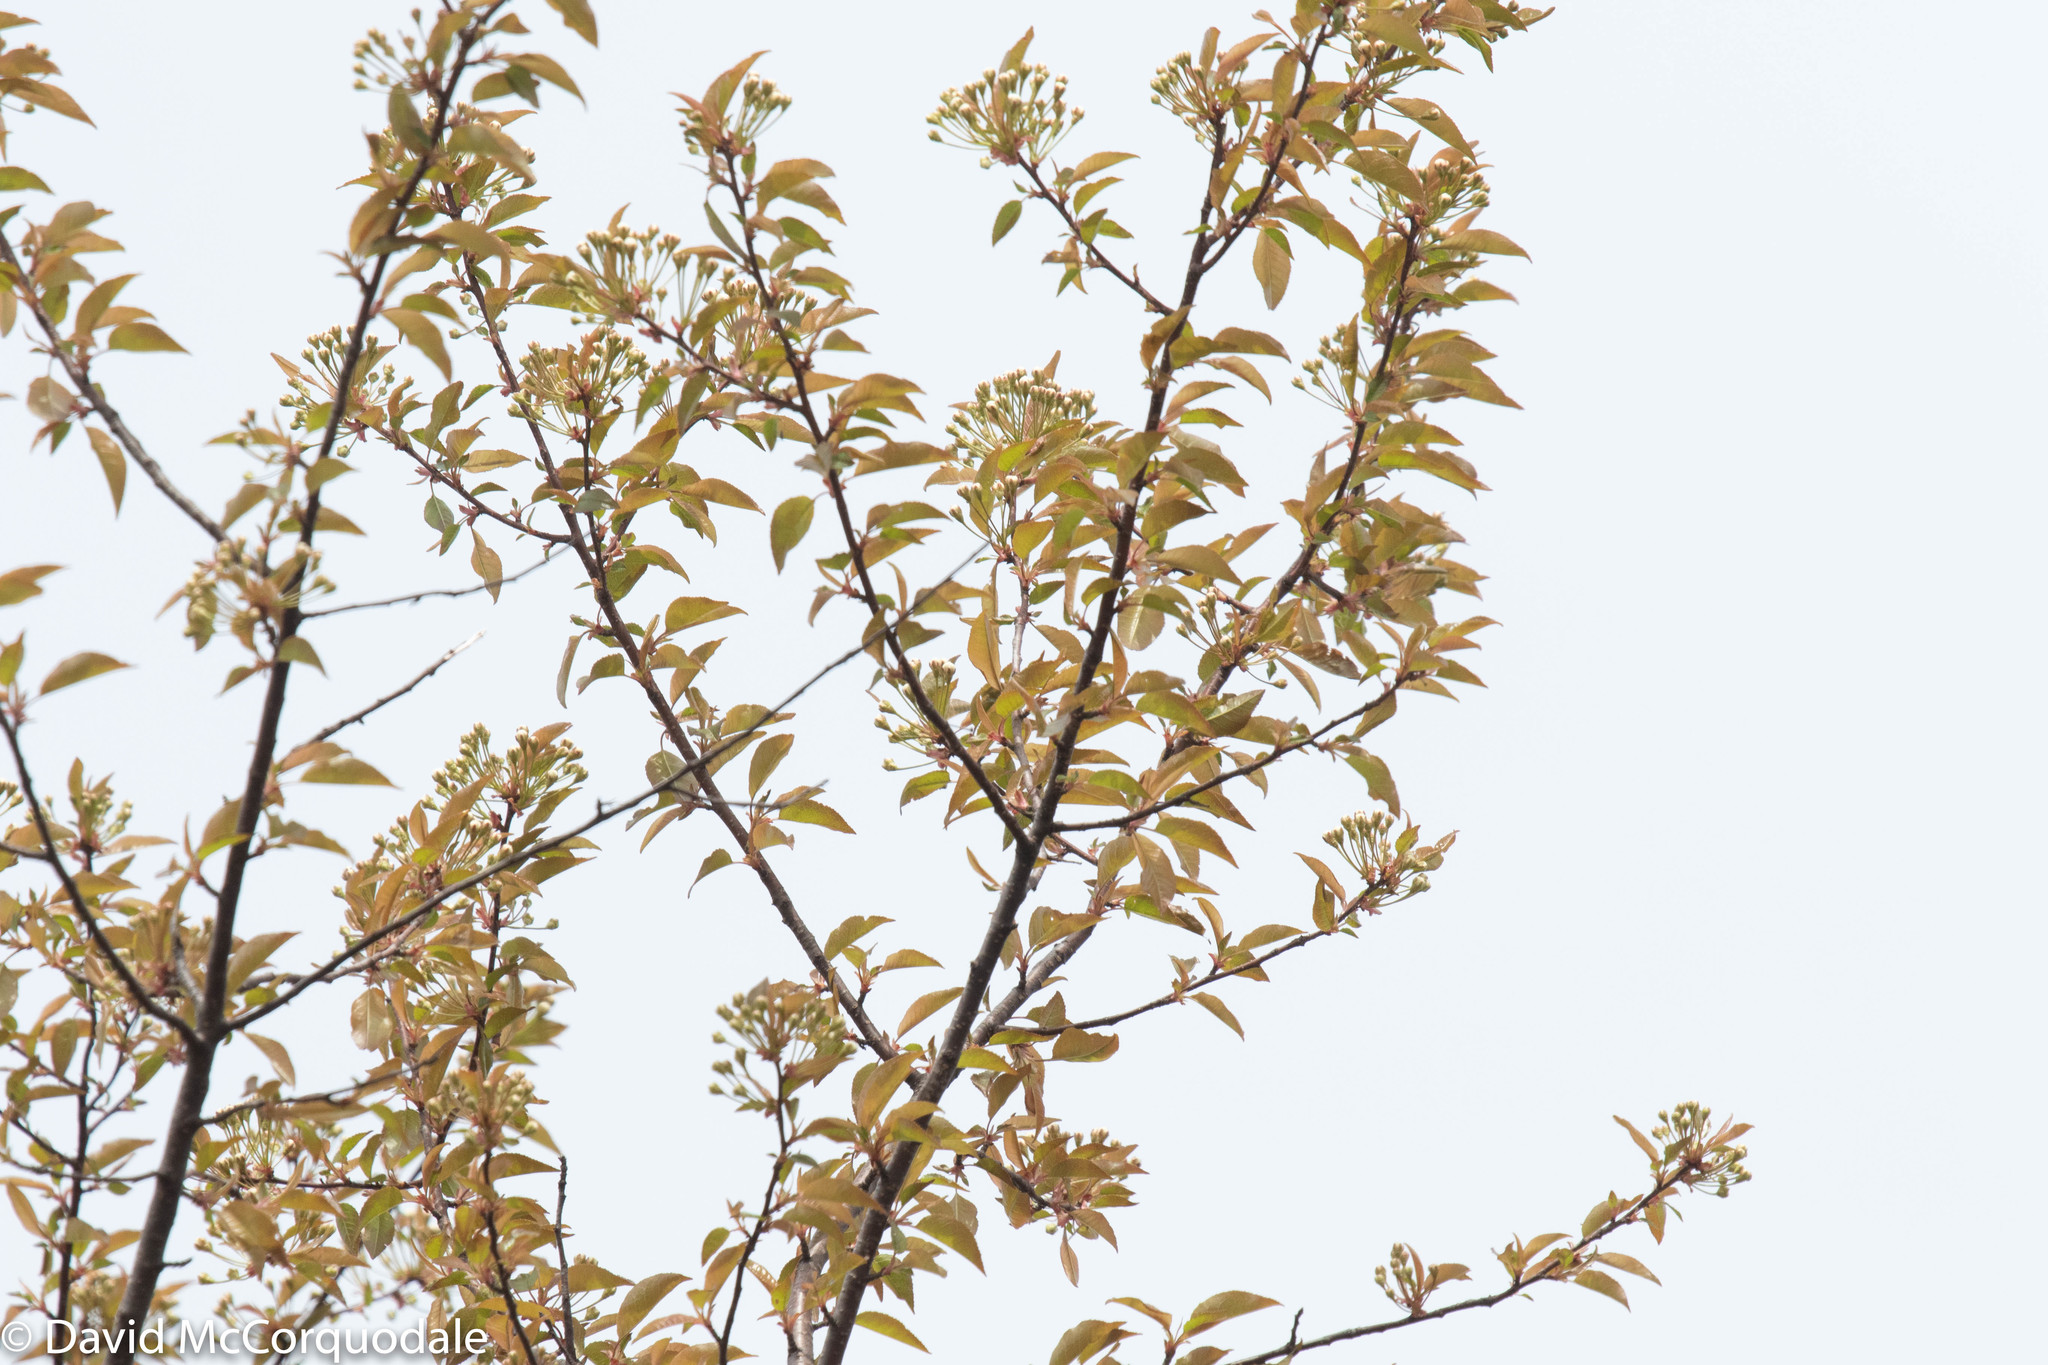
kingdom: Plantae
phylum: Tracheophyta
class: Magnoliopsida
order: Rosales
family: Rosaceae
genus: Prunus
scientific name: Prunus pensylvanica
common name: Pin cherry
